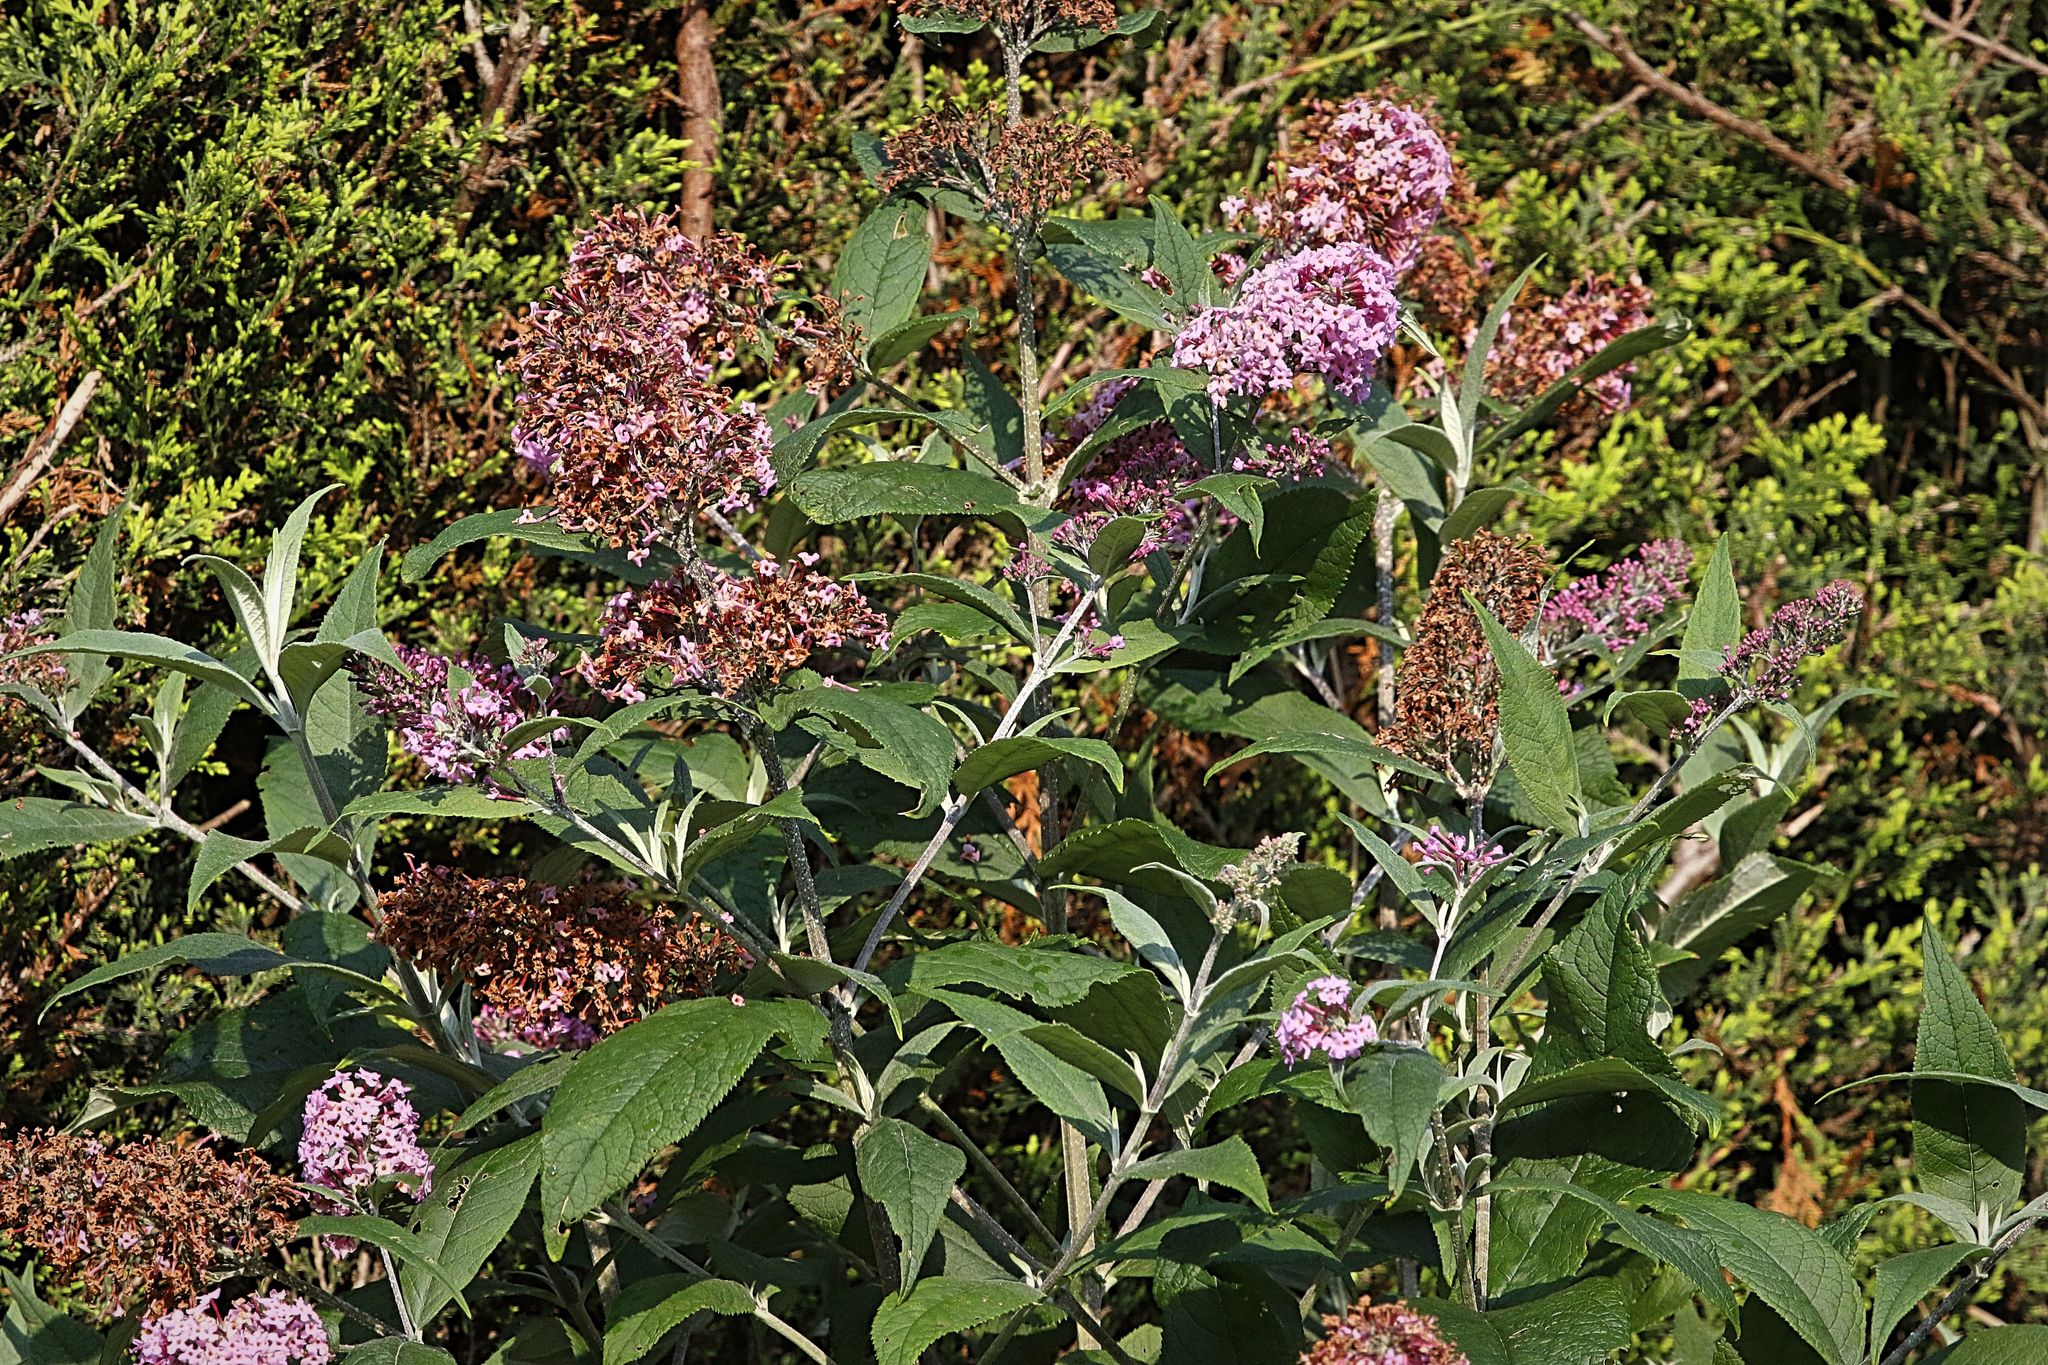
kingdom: Plantae
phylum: Tracheophyta
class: Magnoliopsida
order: Lamiales
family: Scrophulariaceae
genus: Buddleja
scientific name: Buddleja davidii
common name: Butterfly-bush
